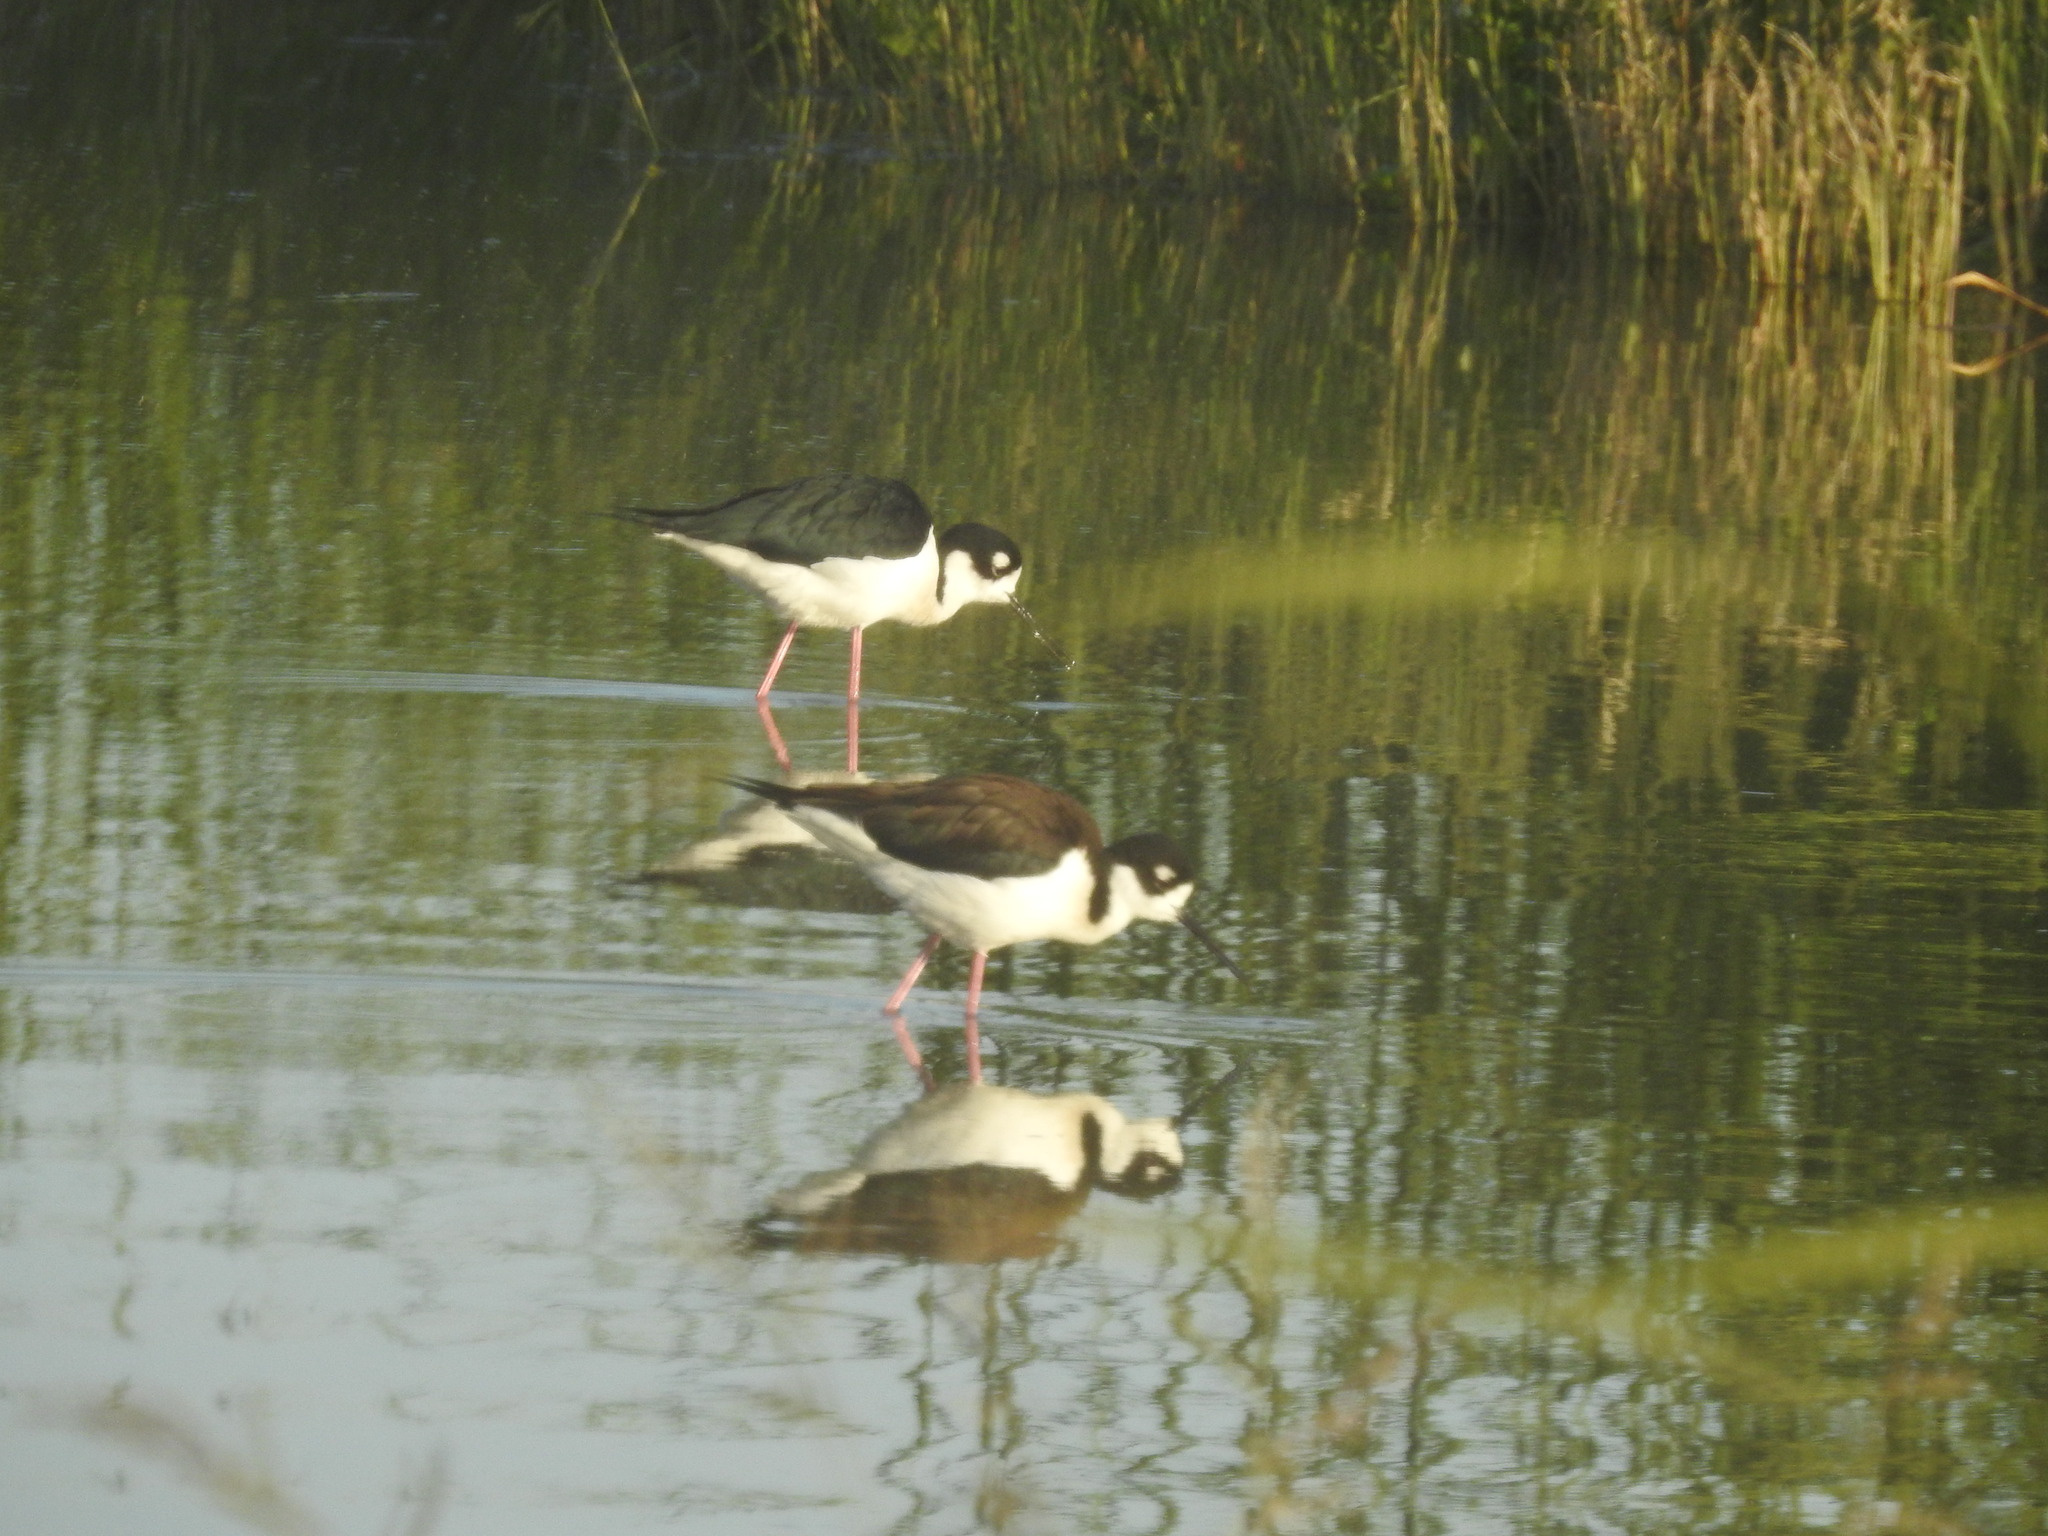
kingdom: Animalia
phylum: Chordata
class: Aves
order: Charadriiformes
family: Recurvirostridae
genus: Himantopus
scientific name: Himantopus mexicanus
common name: Black-necked stilt
